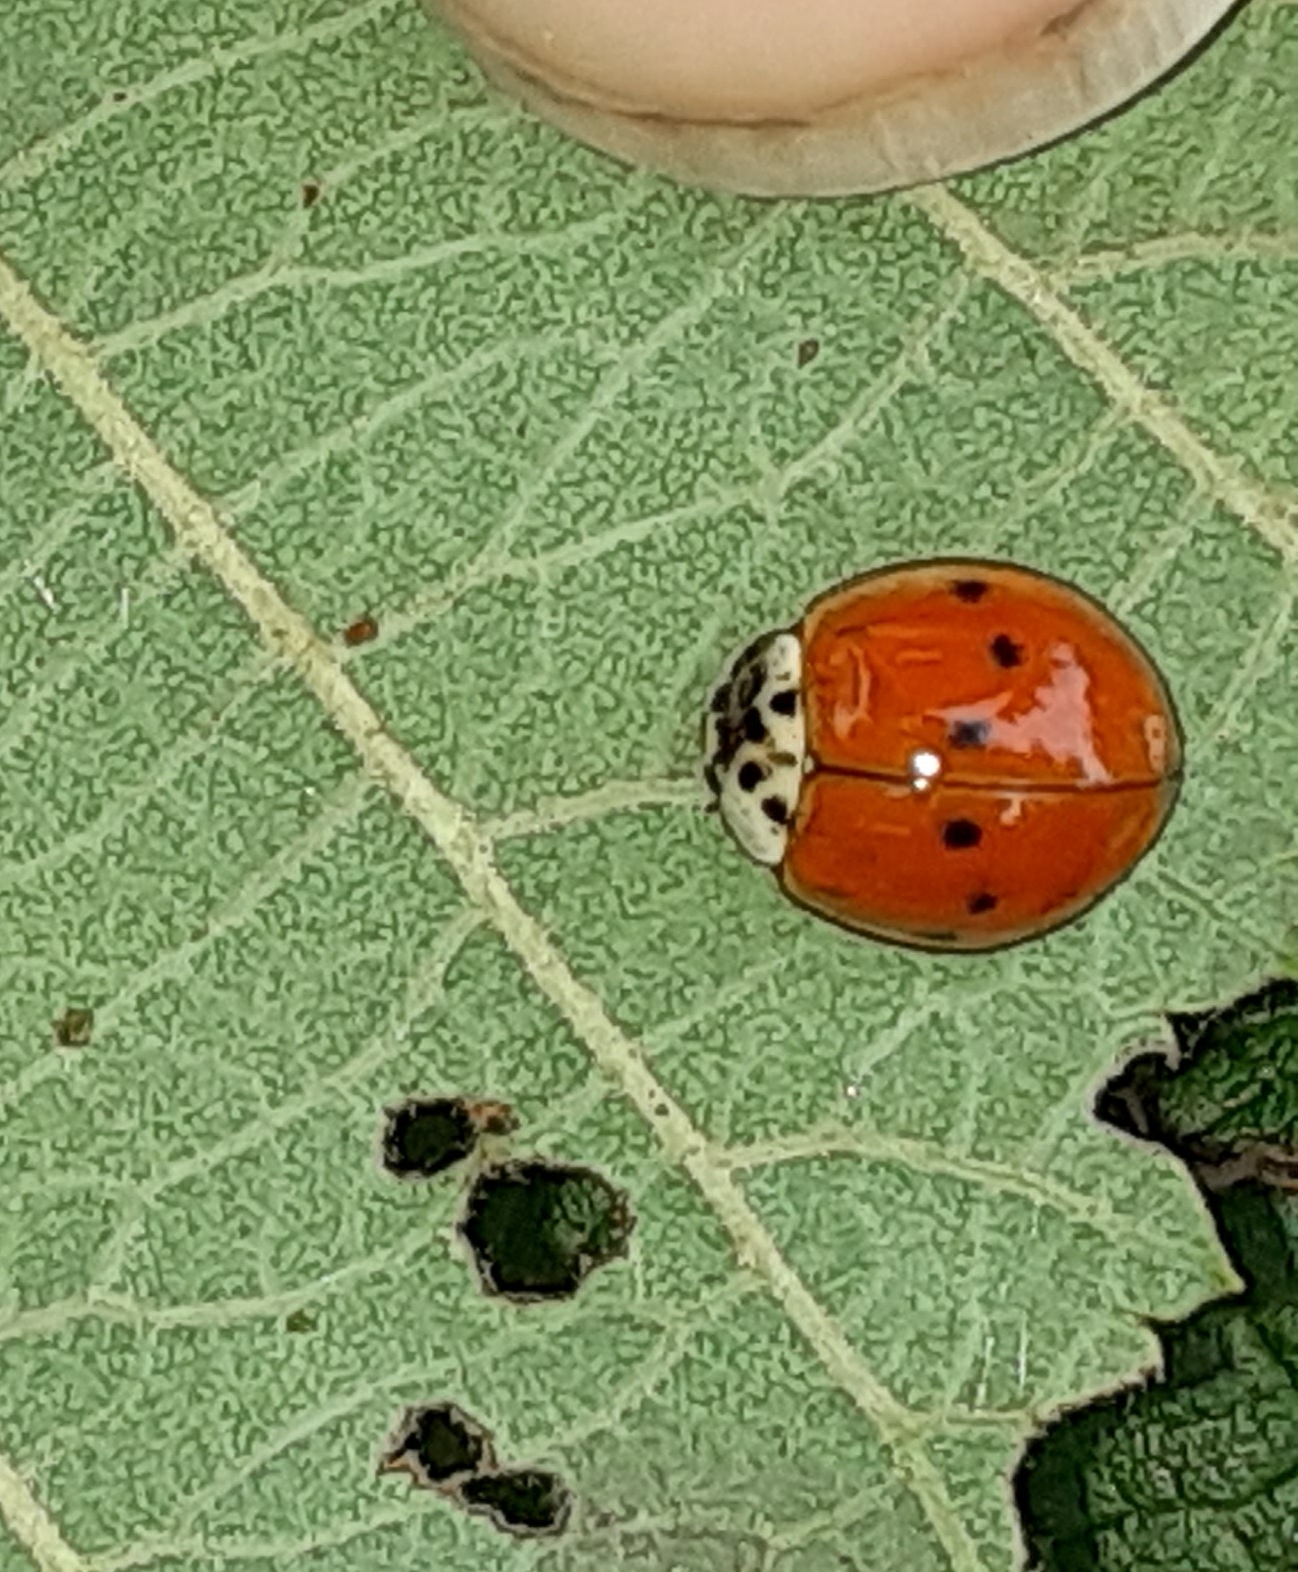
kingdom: Animalia
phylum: Arthropoda
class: Insecta
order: Coleoptera
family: Coccinellidae
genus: Harmonia
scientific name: Harmonia axyridis
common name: Harlequin ladybird
